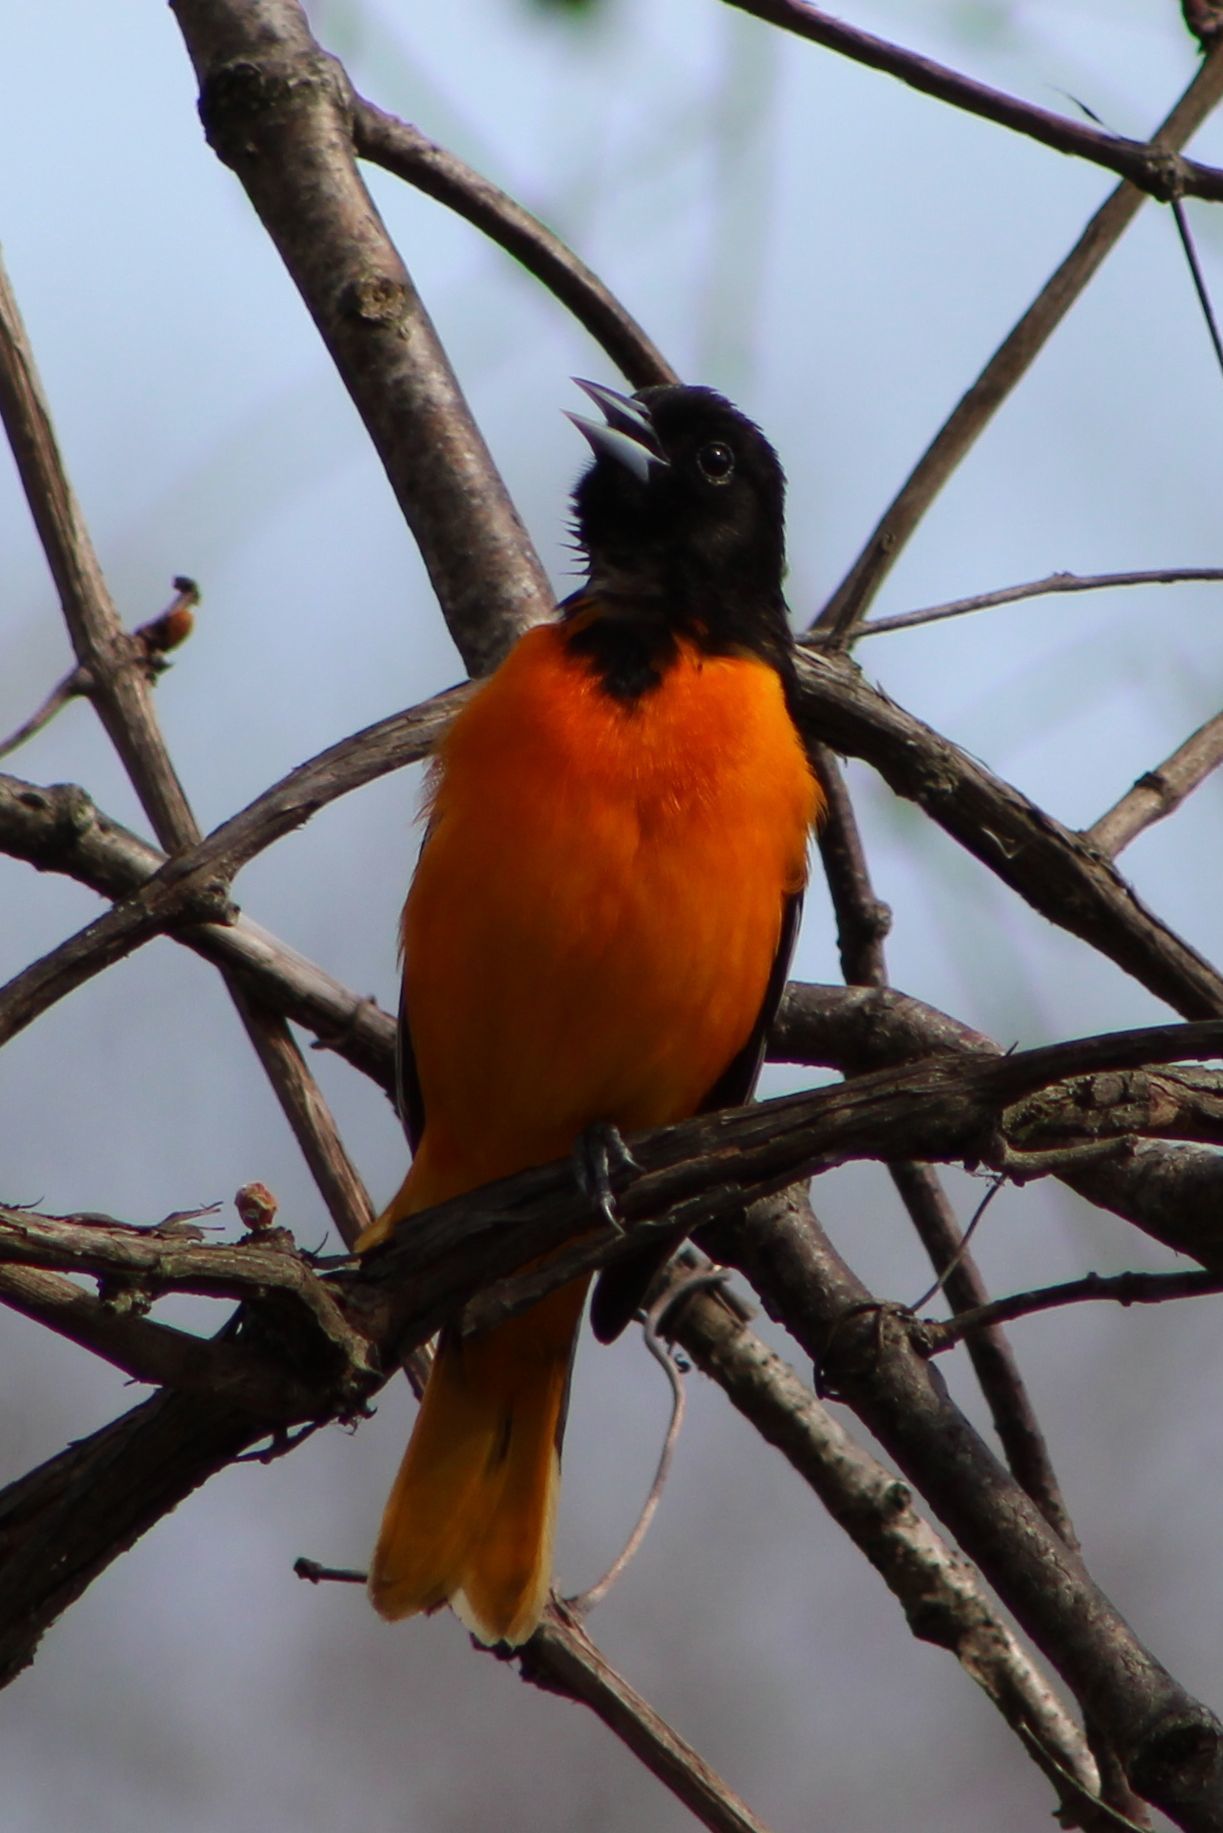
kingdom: Animalia
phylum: Chordata
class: Aves
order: Passeriformes
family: Icteridae
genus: Icterus
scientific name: Icterus galbula
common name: Baltimore oriole
